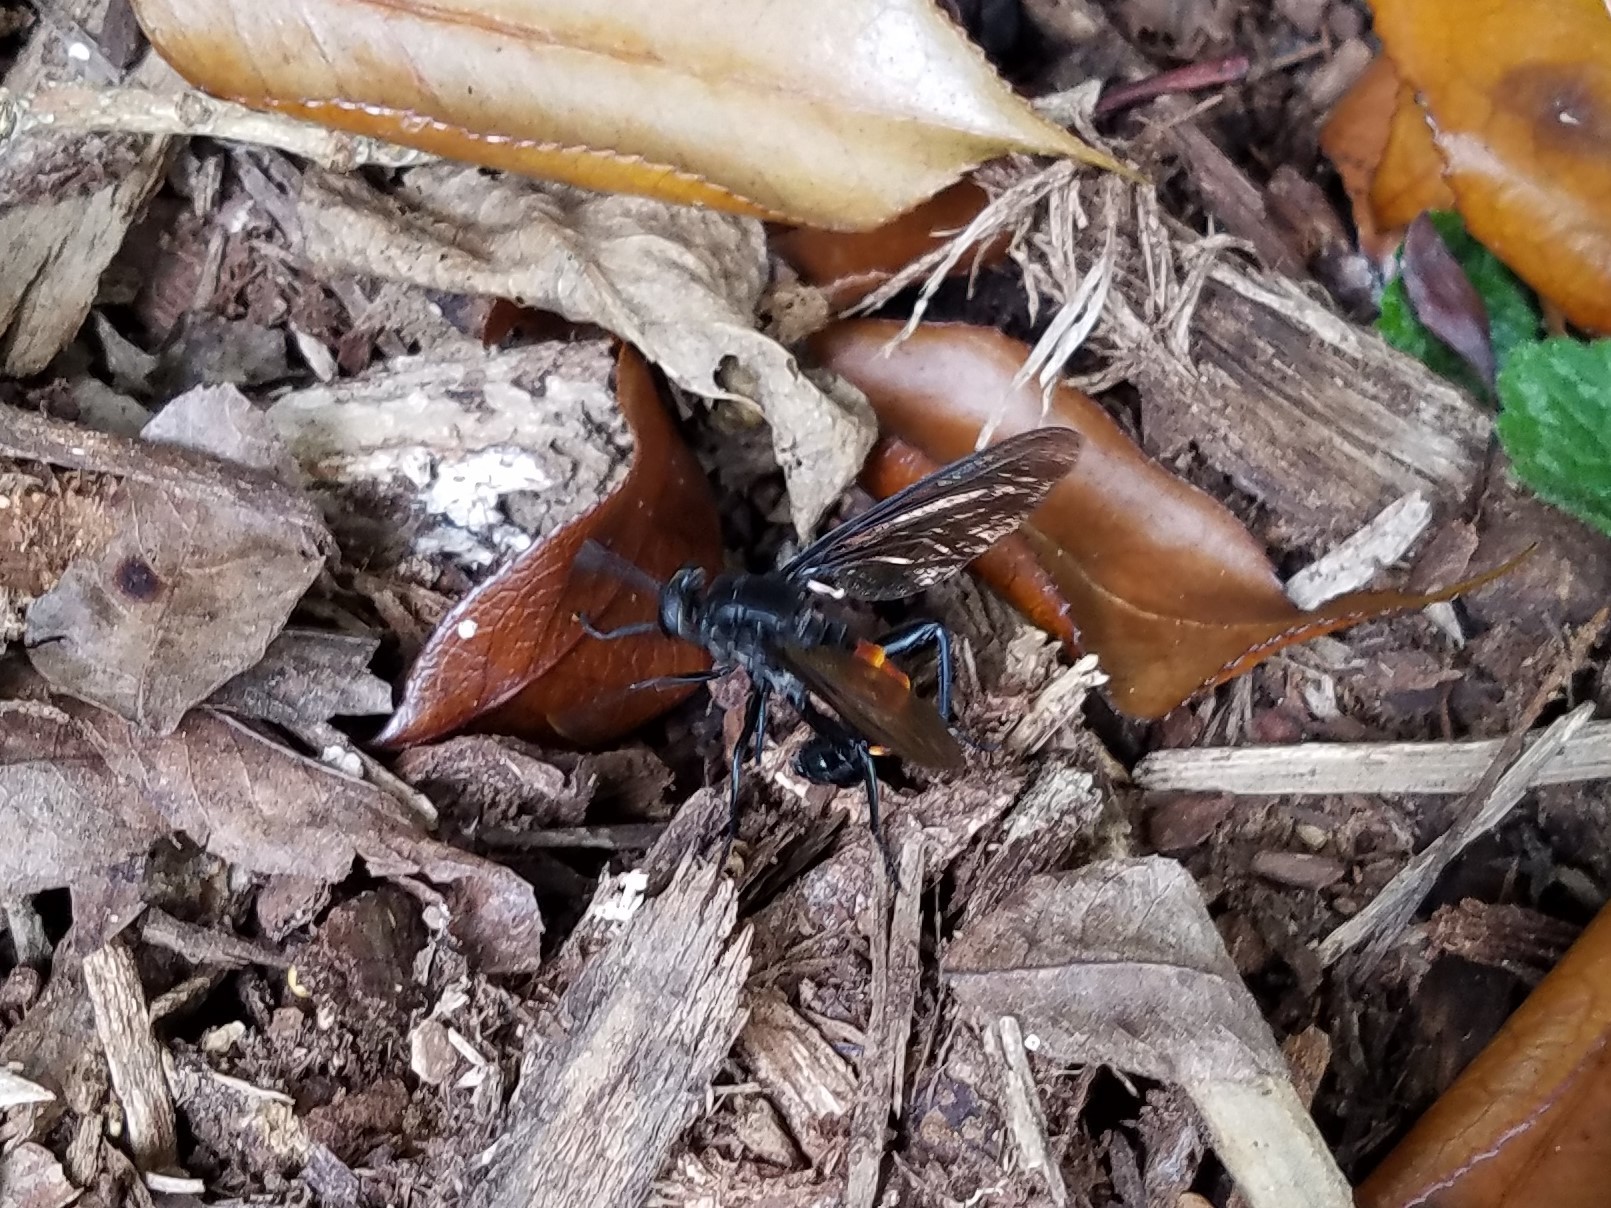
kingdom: Animalia
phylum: Arthropoda
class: Insecta
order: Diptera
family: Mydidae
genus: Mydas
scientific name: Mydas fulvifrons
